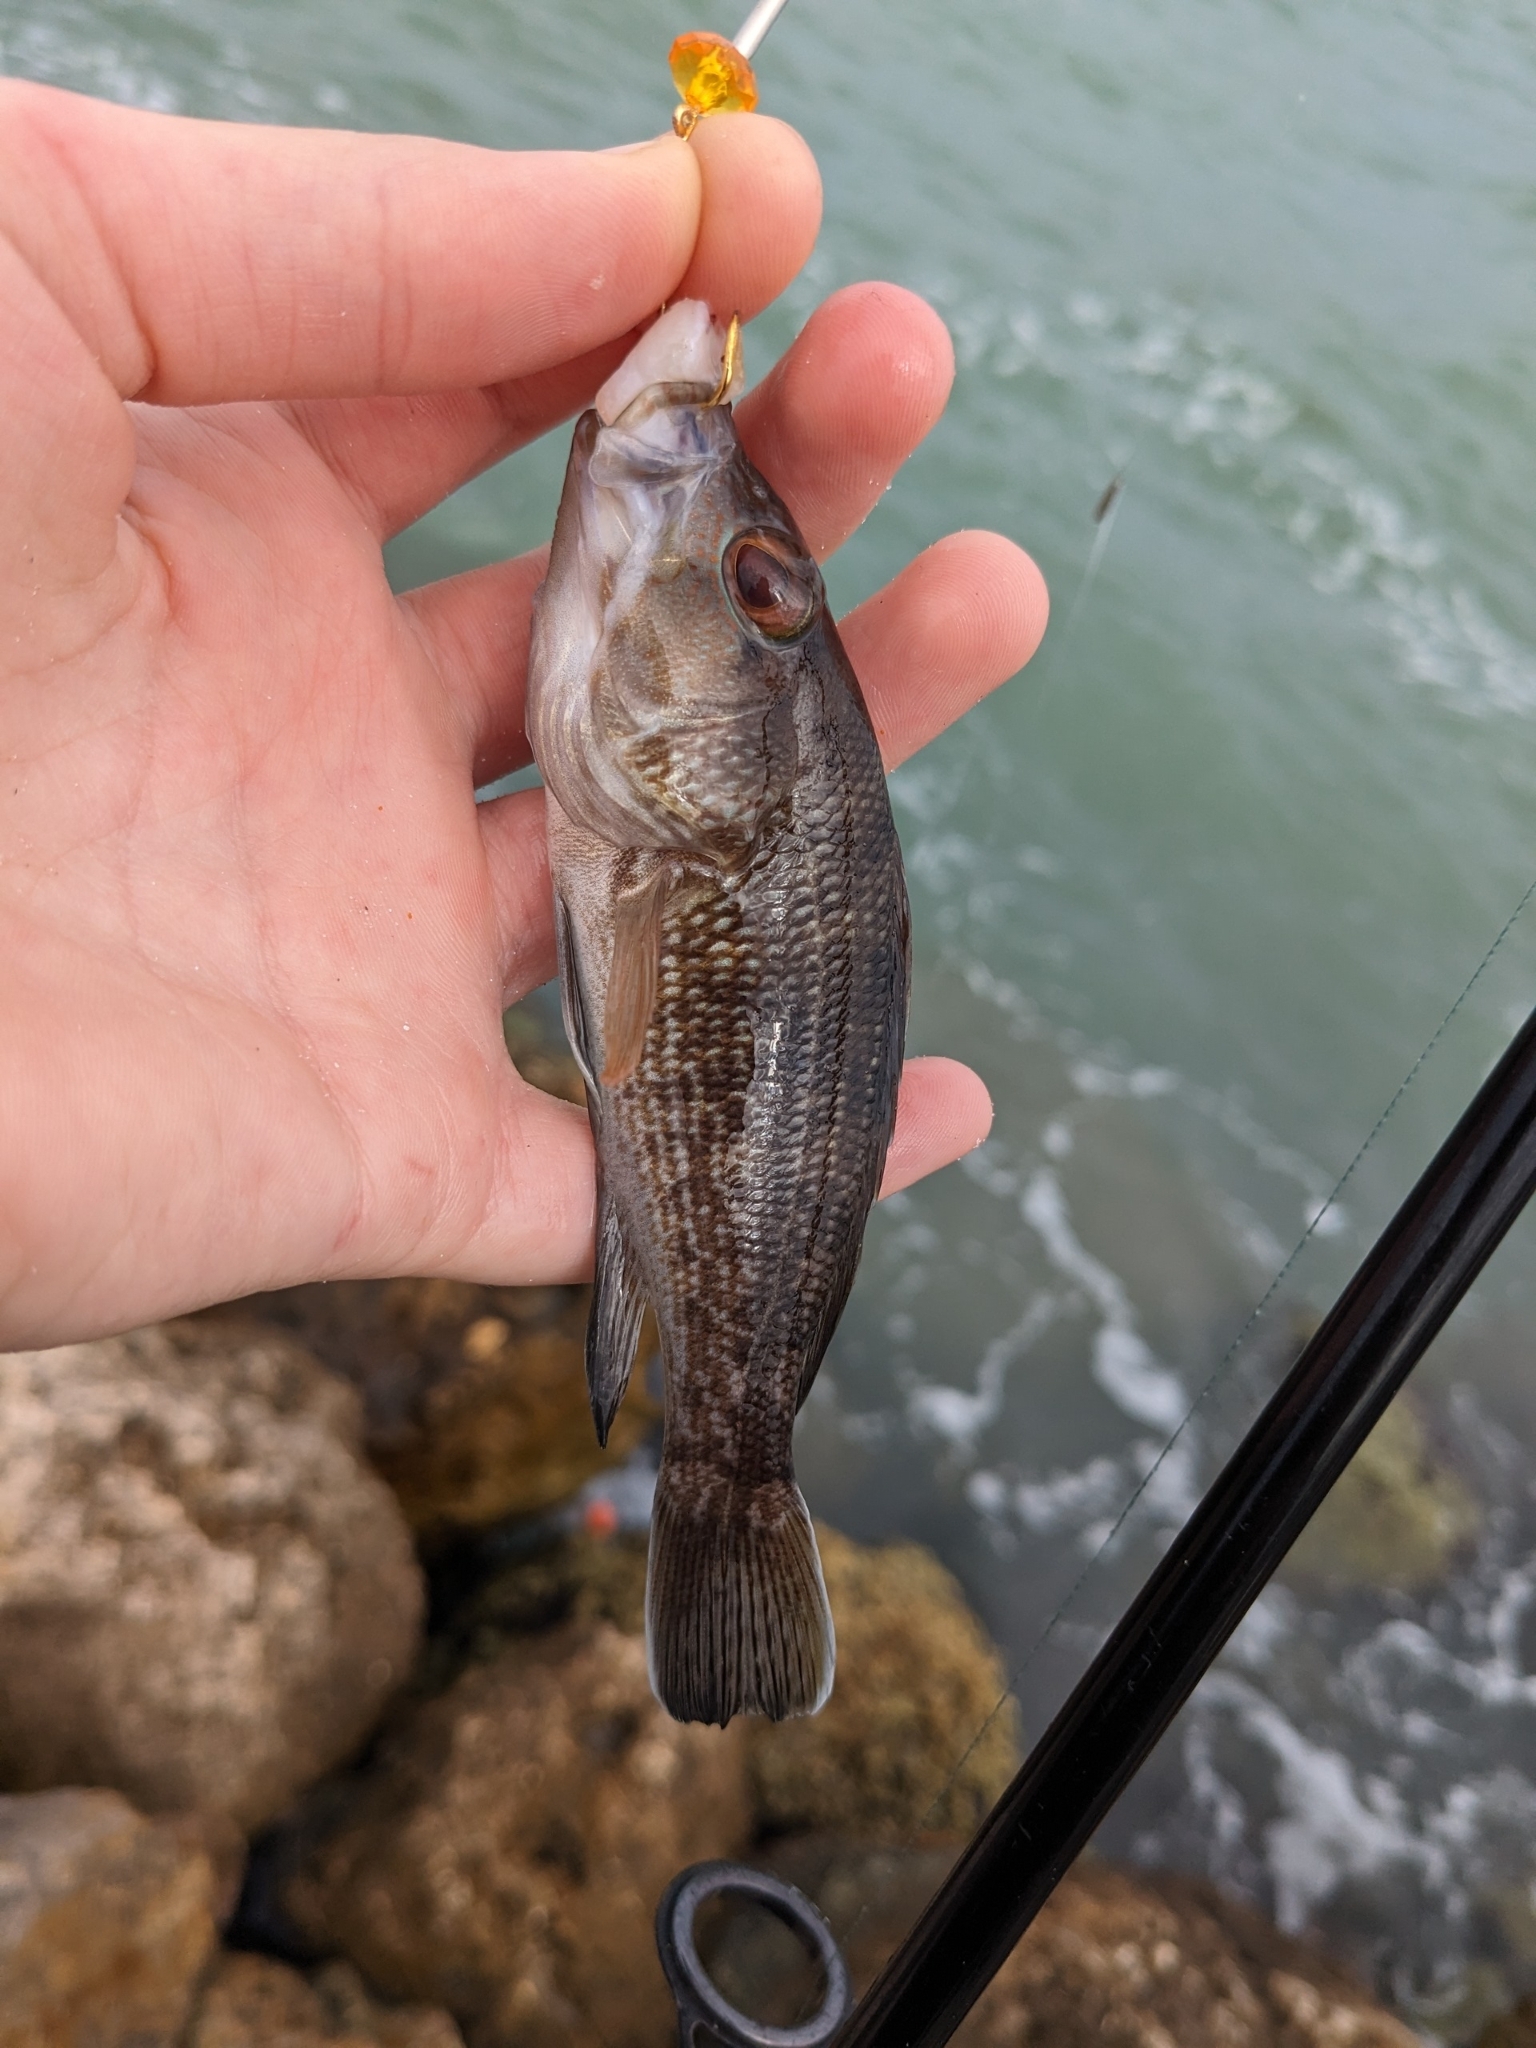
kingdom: Animalia
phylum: Chordata
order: Perciformes
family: Serranidae
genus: Centropristis
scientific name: Centropristis striata
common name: Black sea bass
